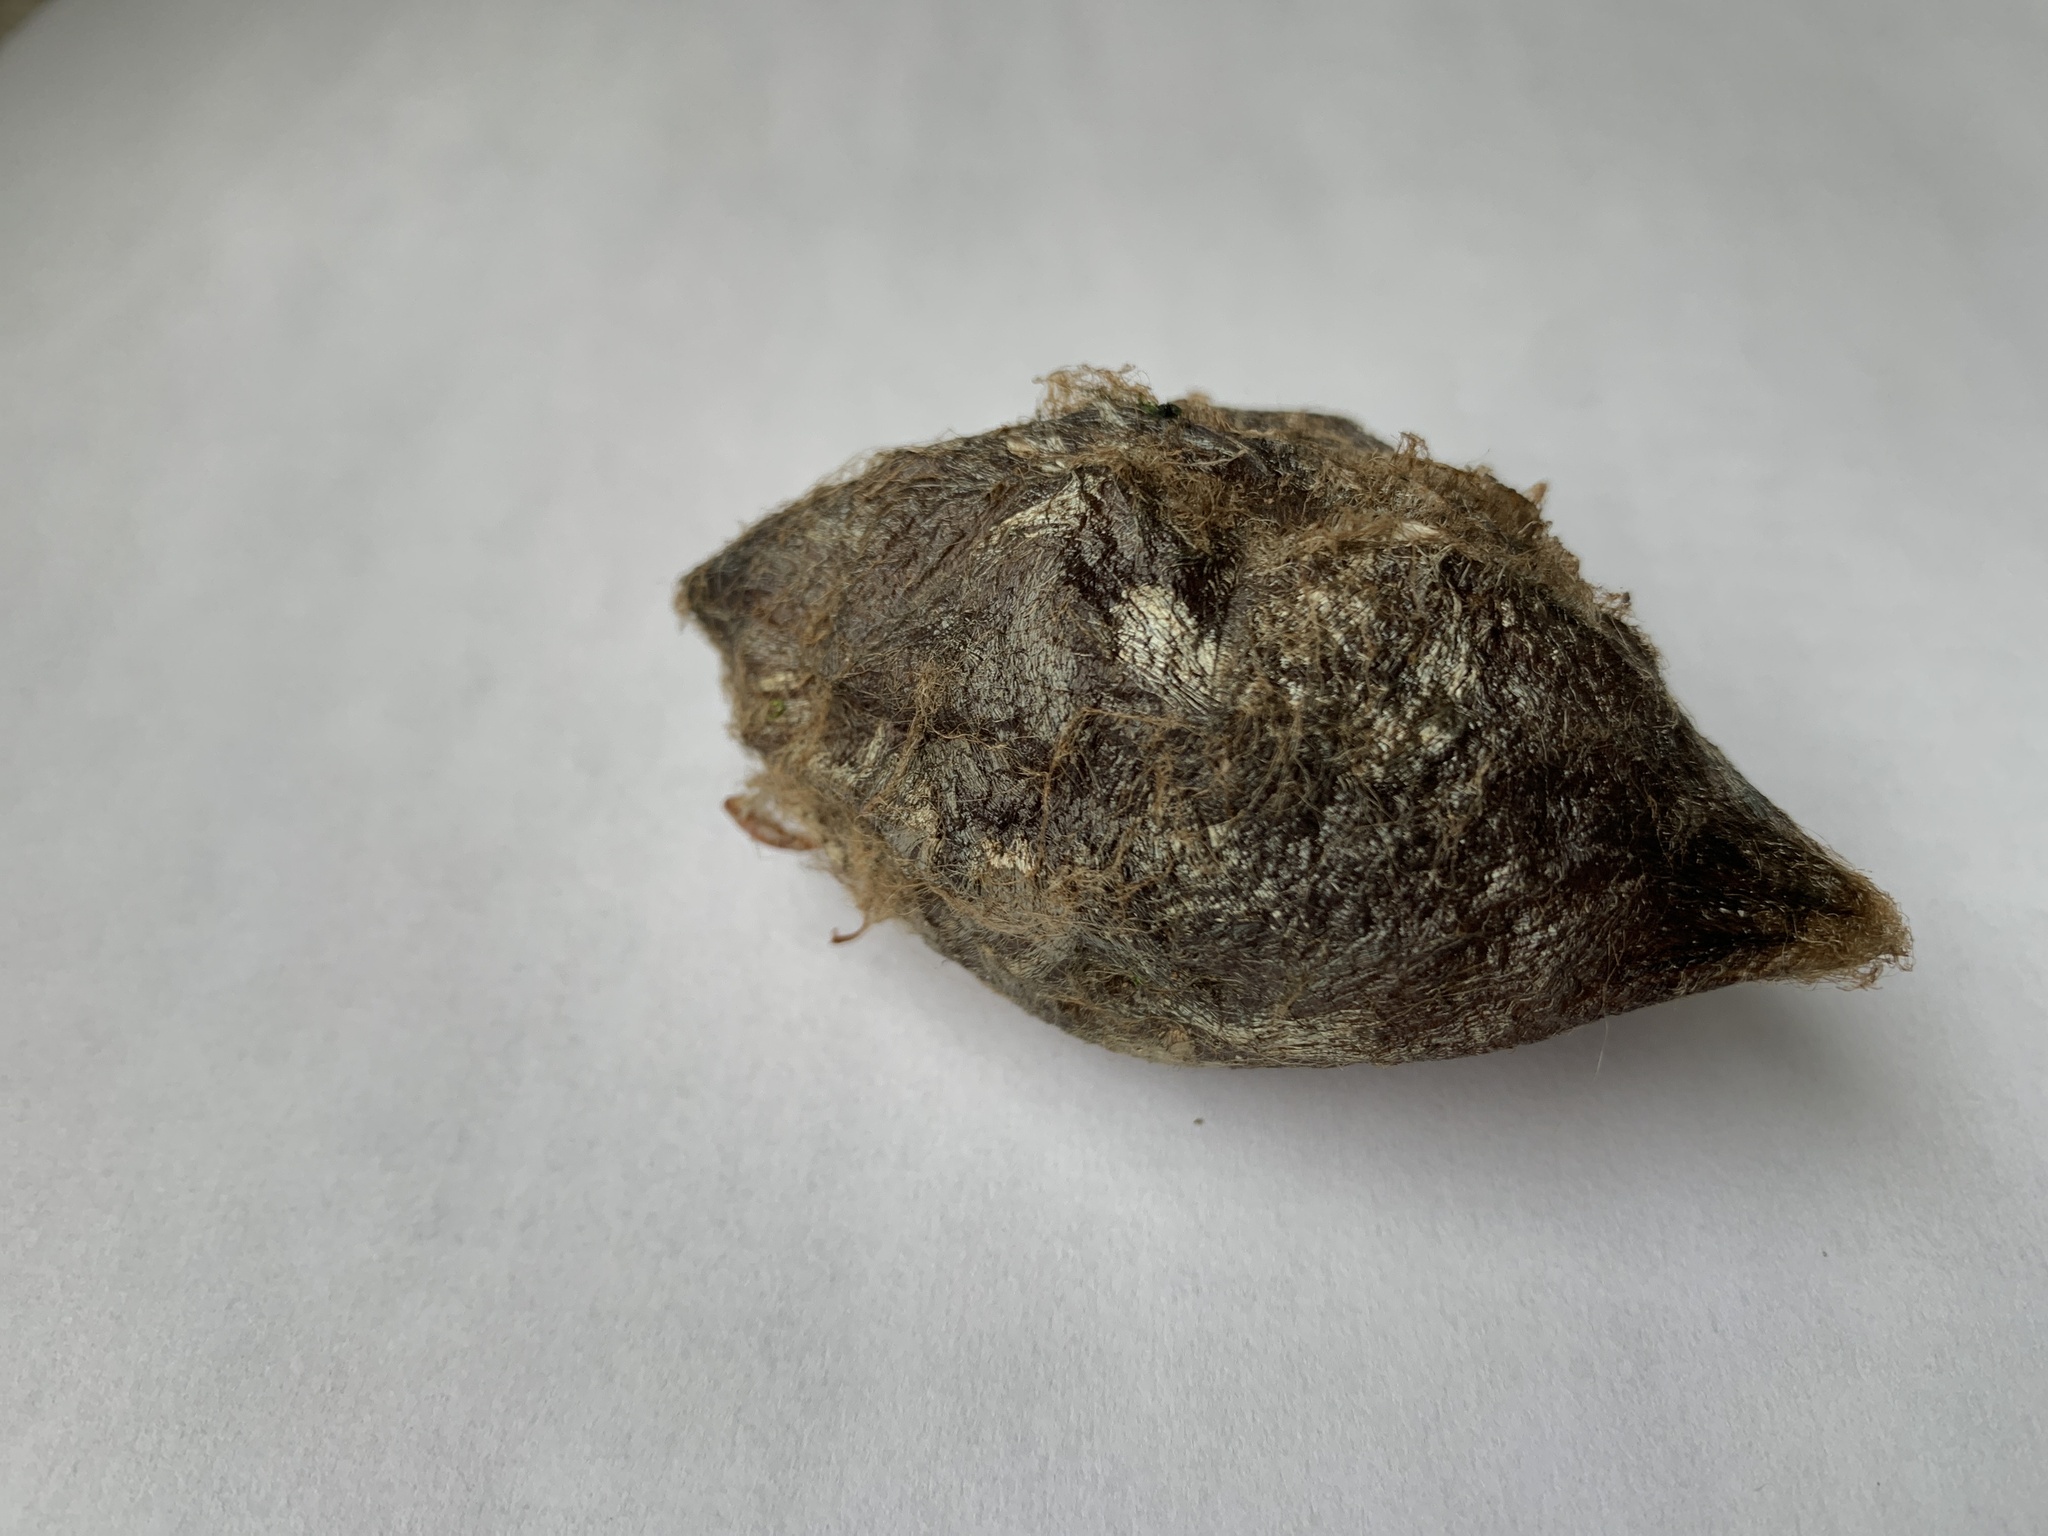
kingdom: Animalia
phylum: Arthropoda
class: Insecta
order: Lepidoptera
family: Saturniidae
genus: Hyalophora
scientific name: Hyalophora euryalus
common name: Ceanothus silkmoth
